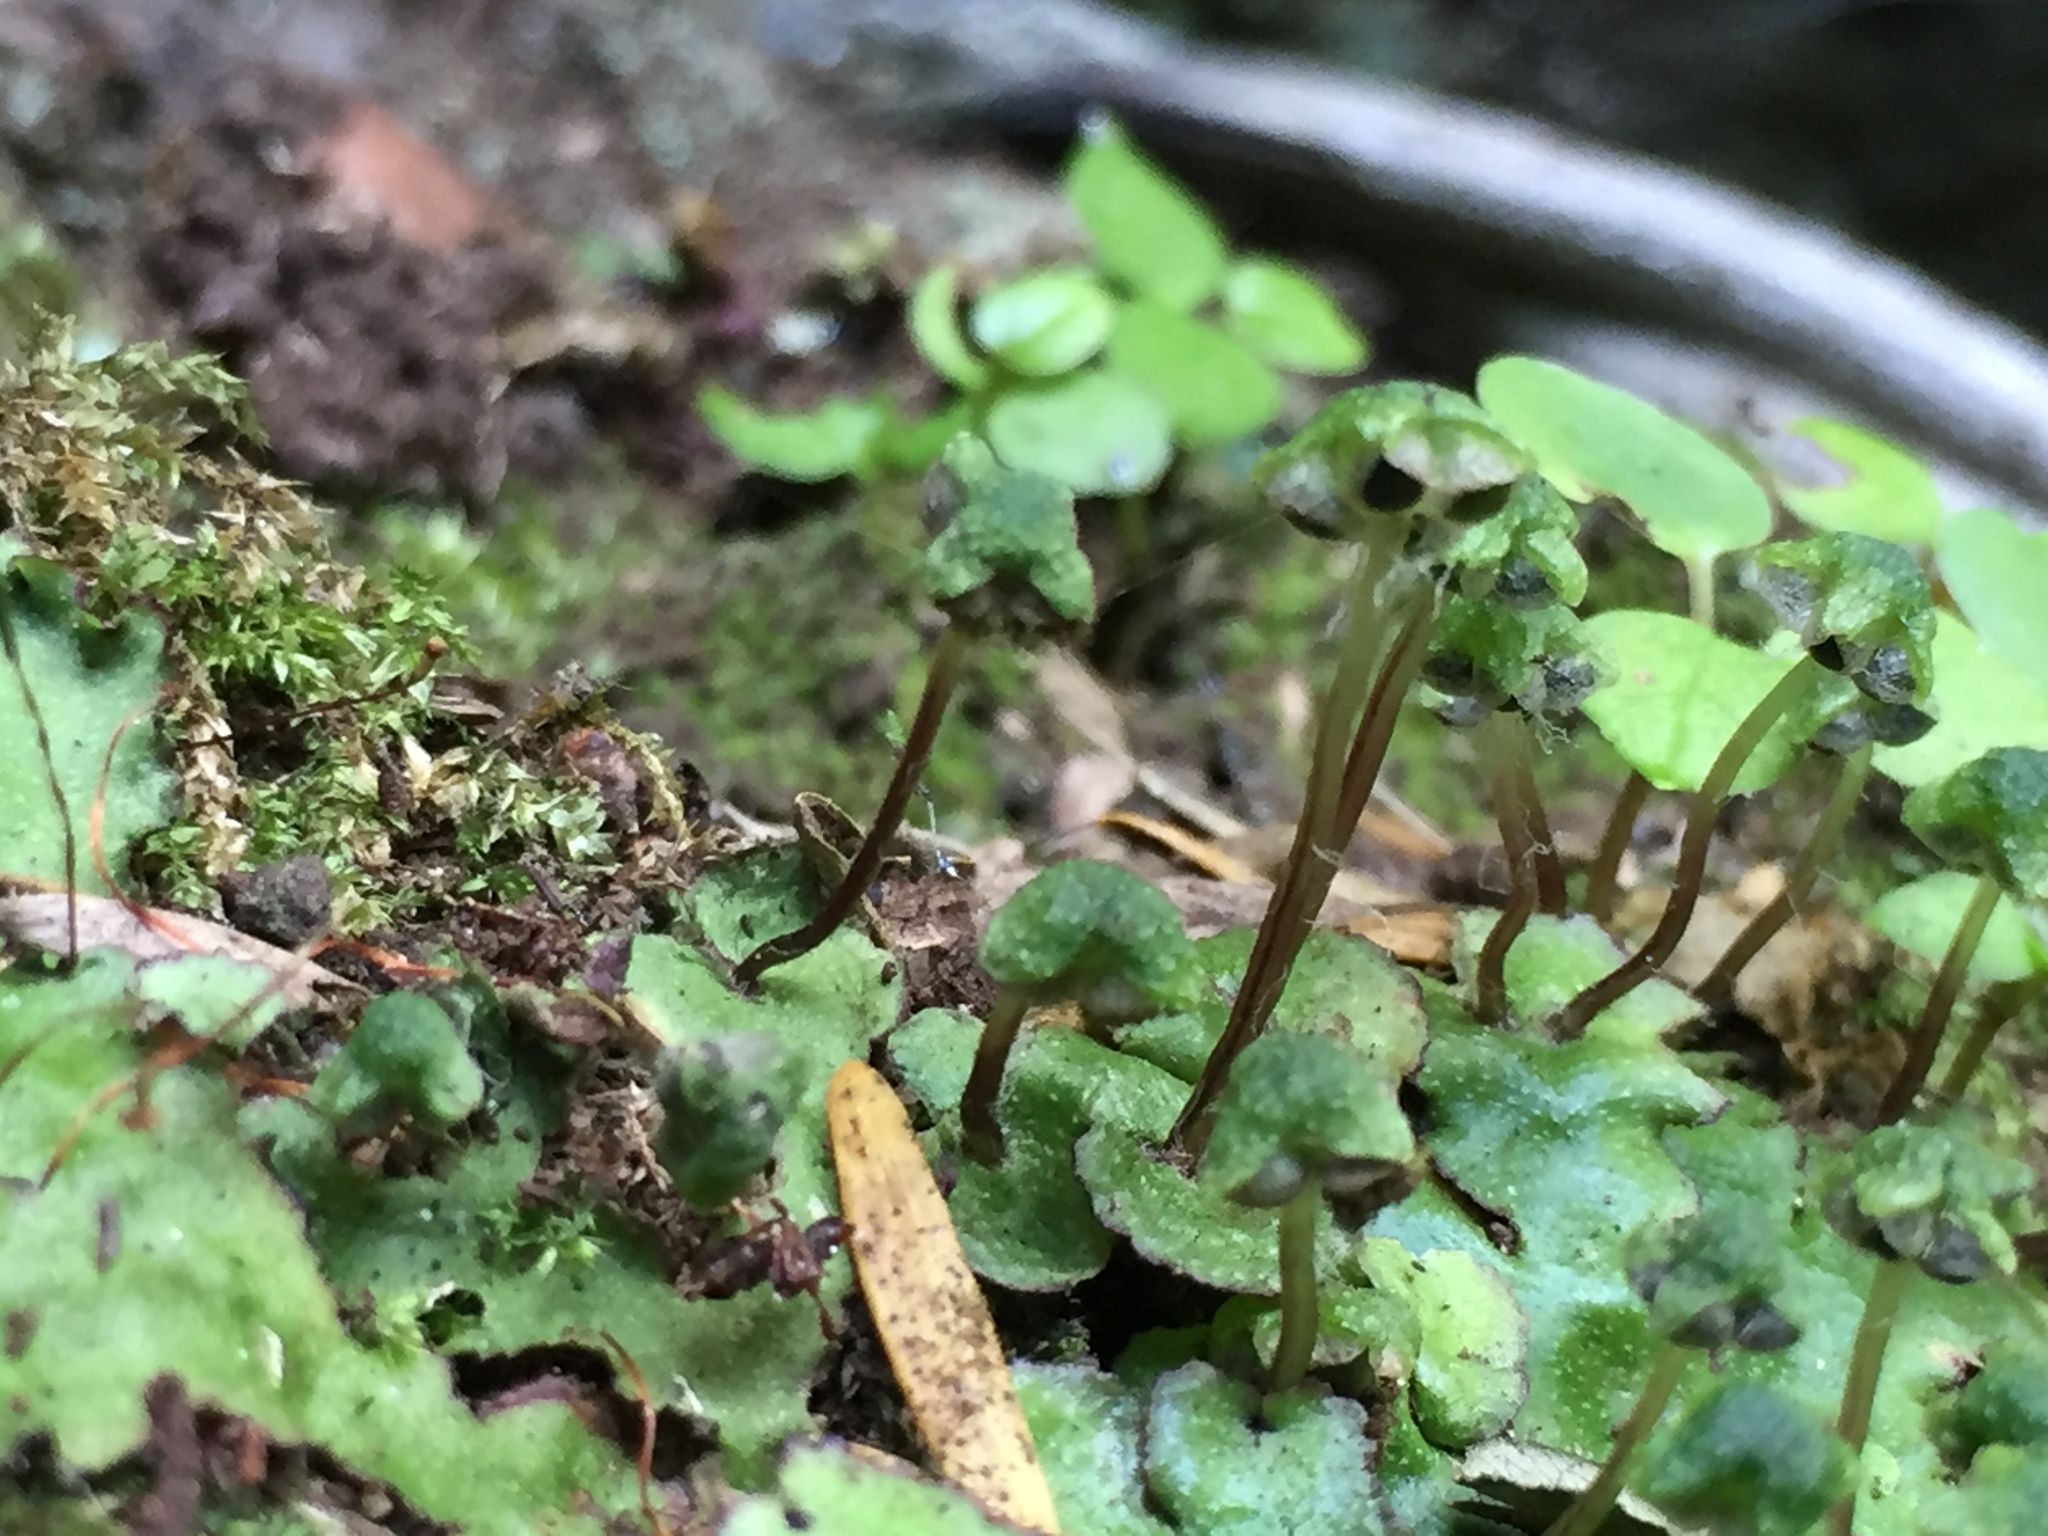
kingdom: Plantae
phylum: Marchantiophyta
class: Marchantiopsida
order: Marchantiales
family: Aytoniaceae
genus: Reboulia
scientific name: Reboulia hemisphaerica
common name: Purple-margined liverwort
